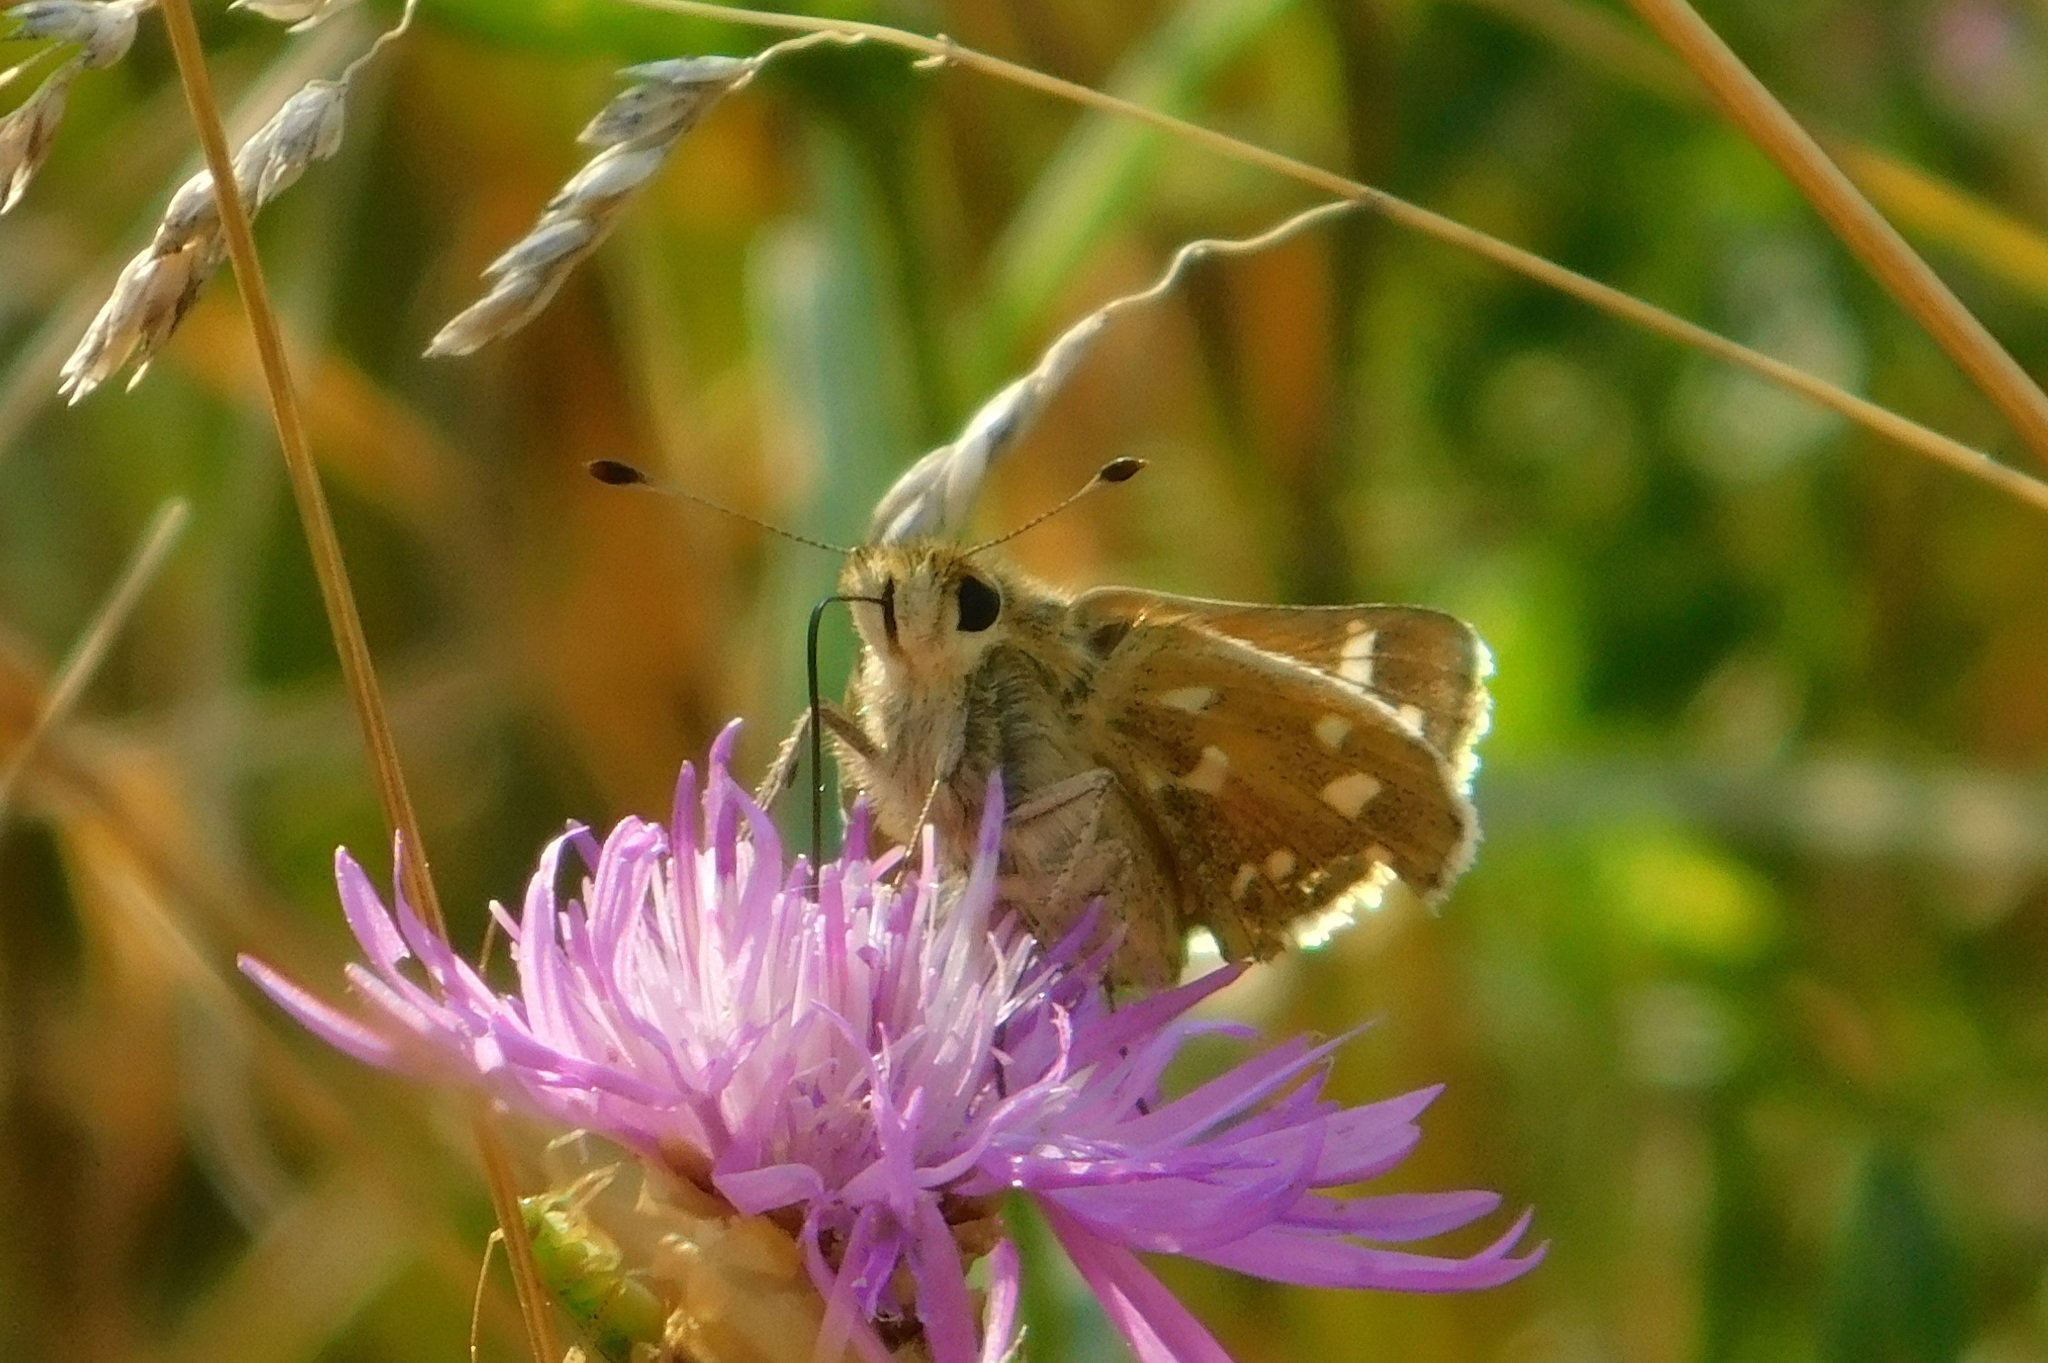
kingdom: Animalia
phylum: Arthropoda
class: Insecta
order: Lepidoptera
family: Hesperiidae
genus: Hesperia
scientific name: Hesperia comma
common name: Common branded skipper
